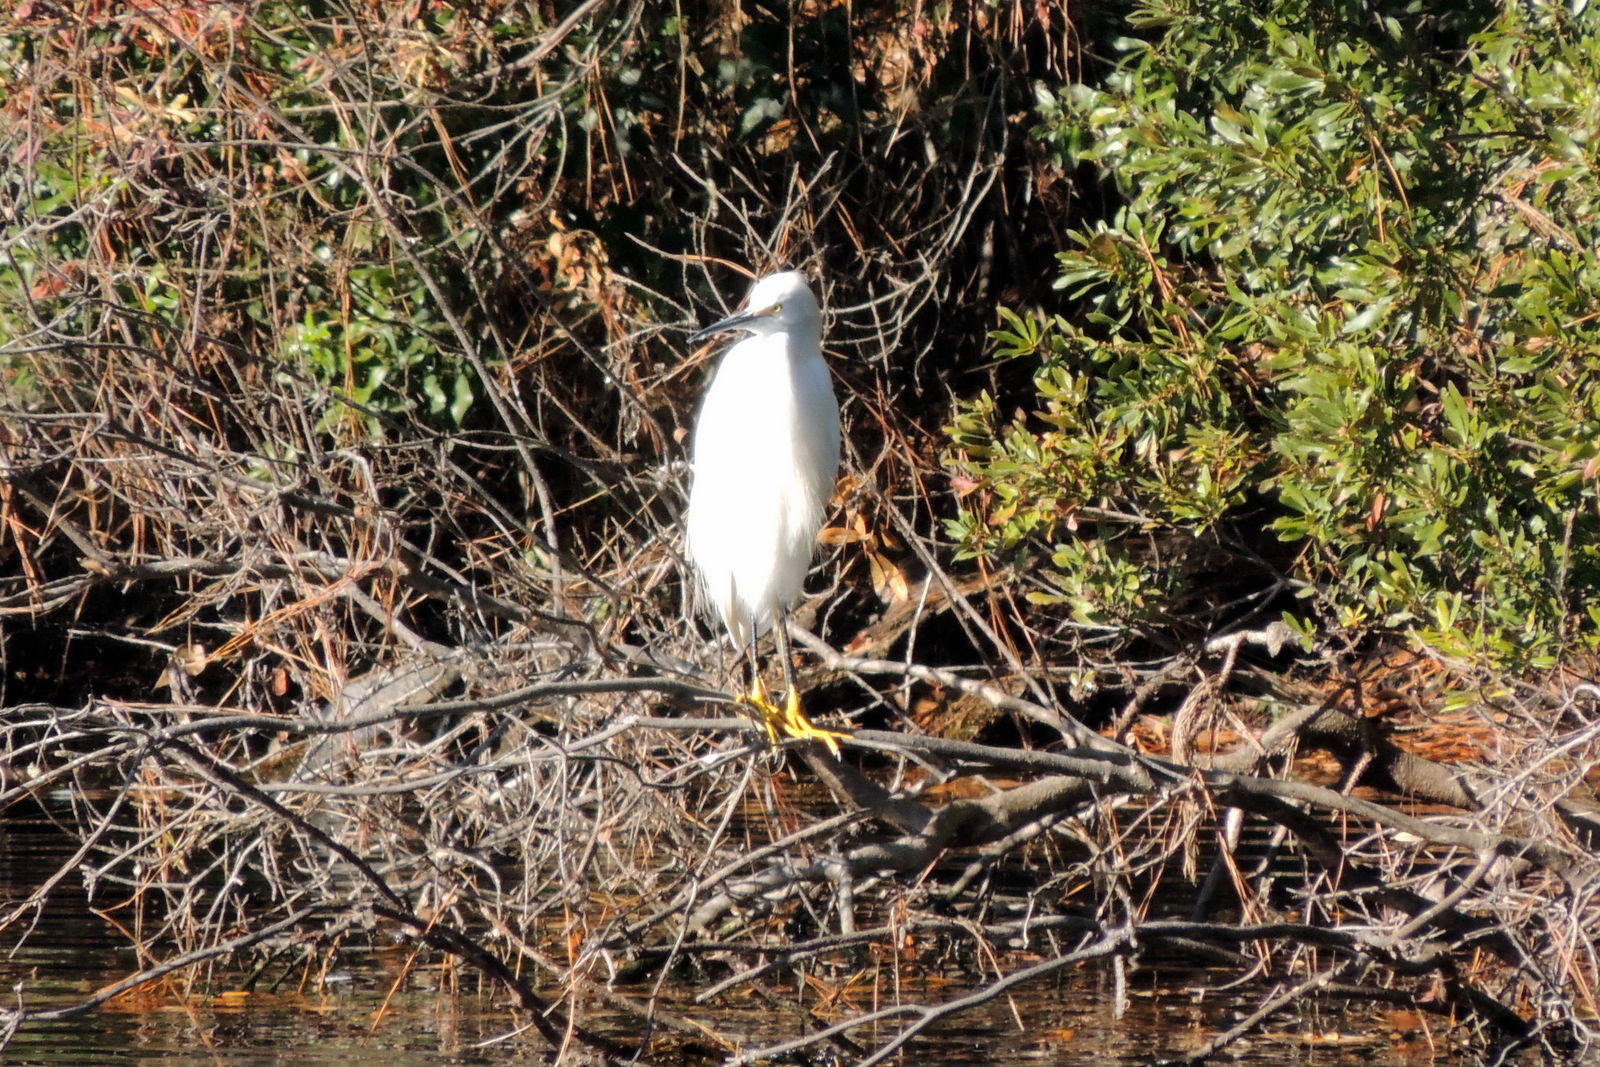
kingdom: Animalia
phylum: Chordata
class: Aves
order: Pelecaniformes
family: Ardeidae
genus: Egretta
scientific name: Egretta thula
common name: Snowy egret
